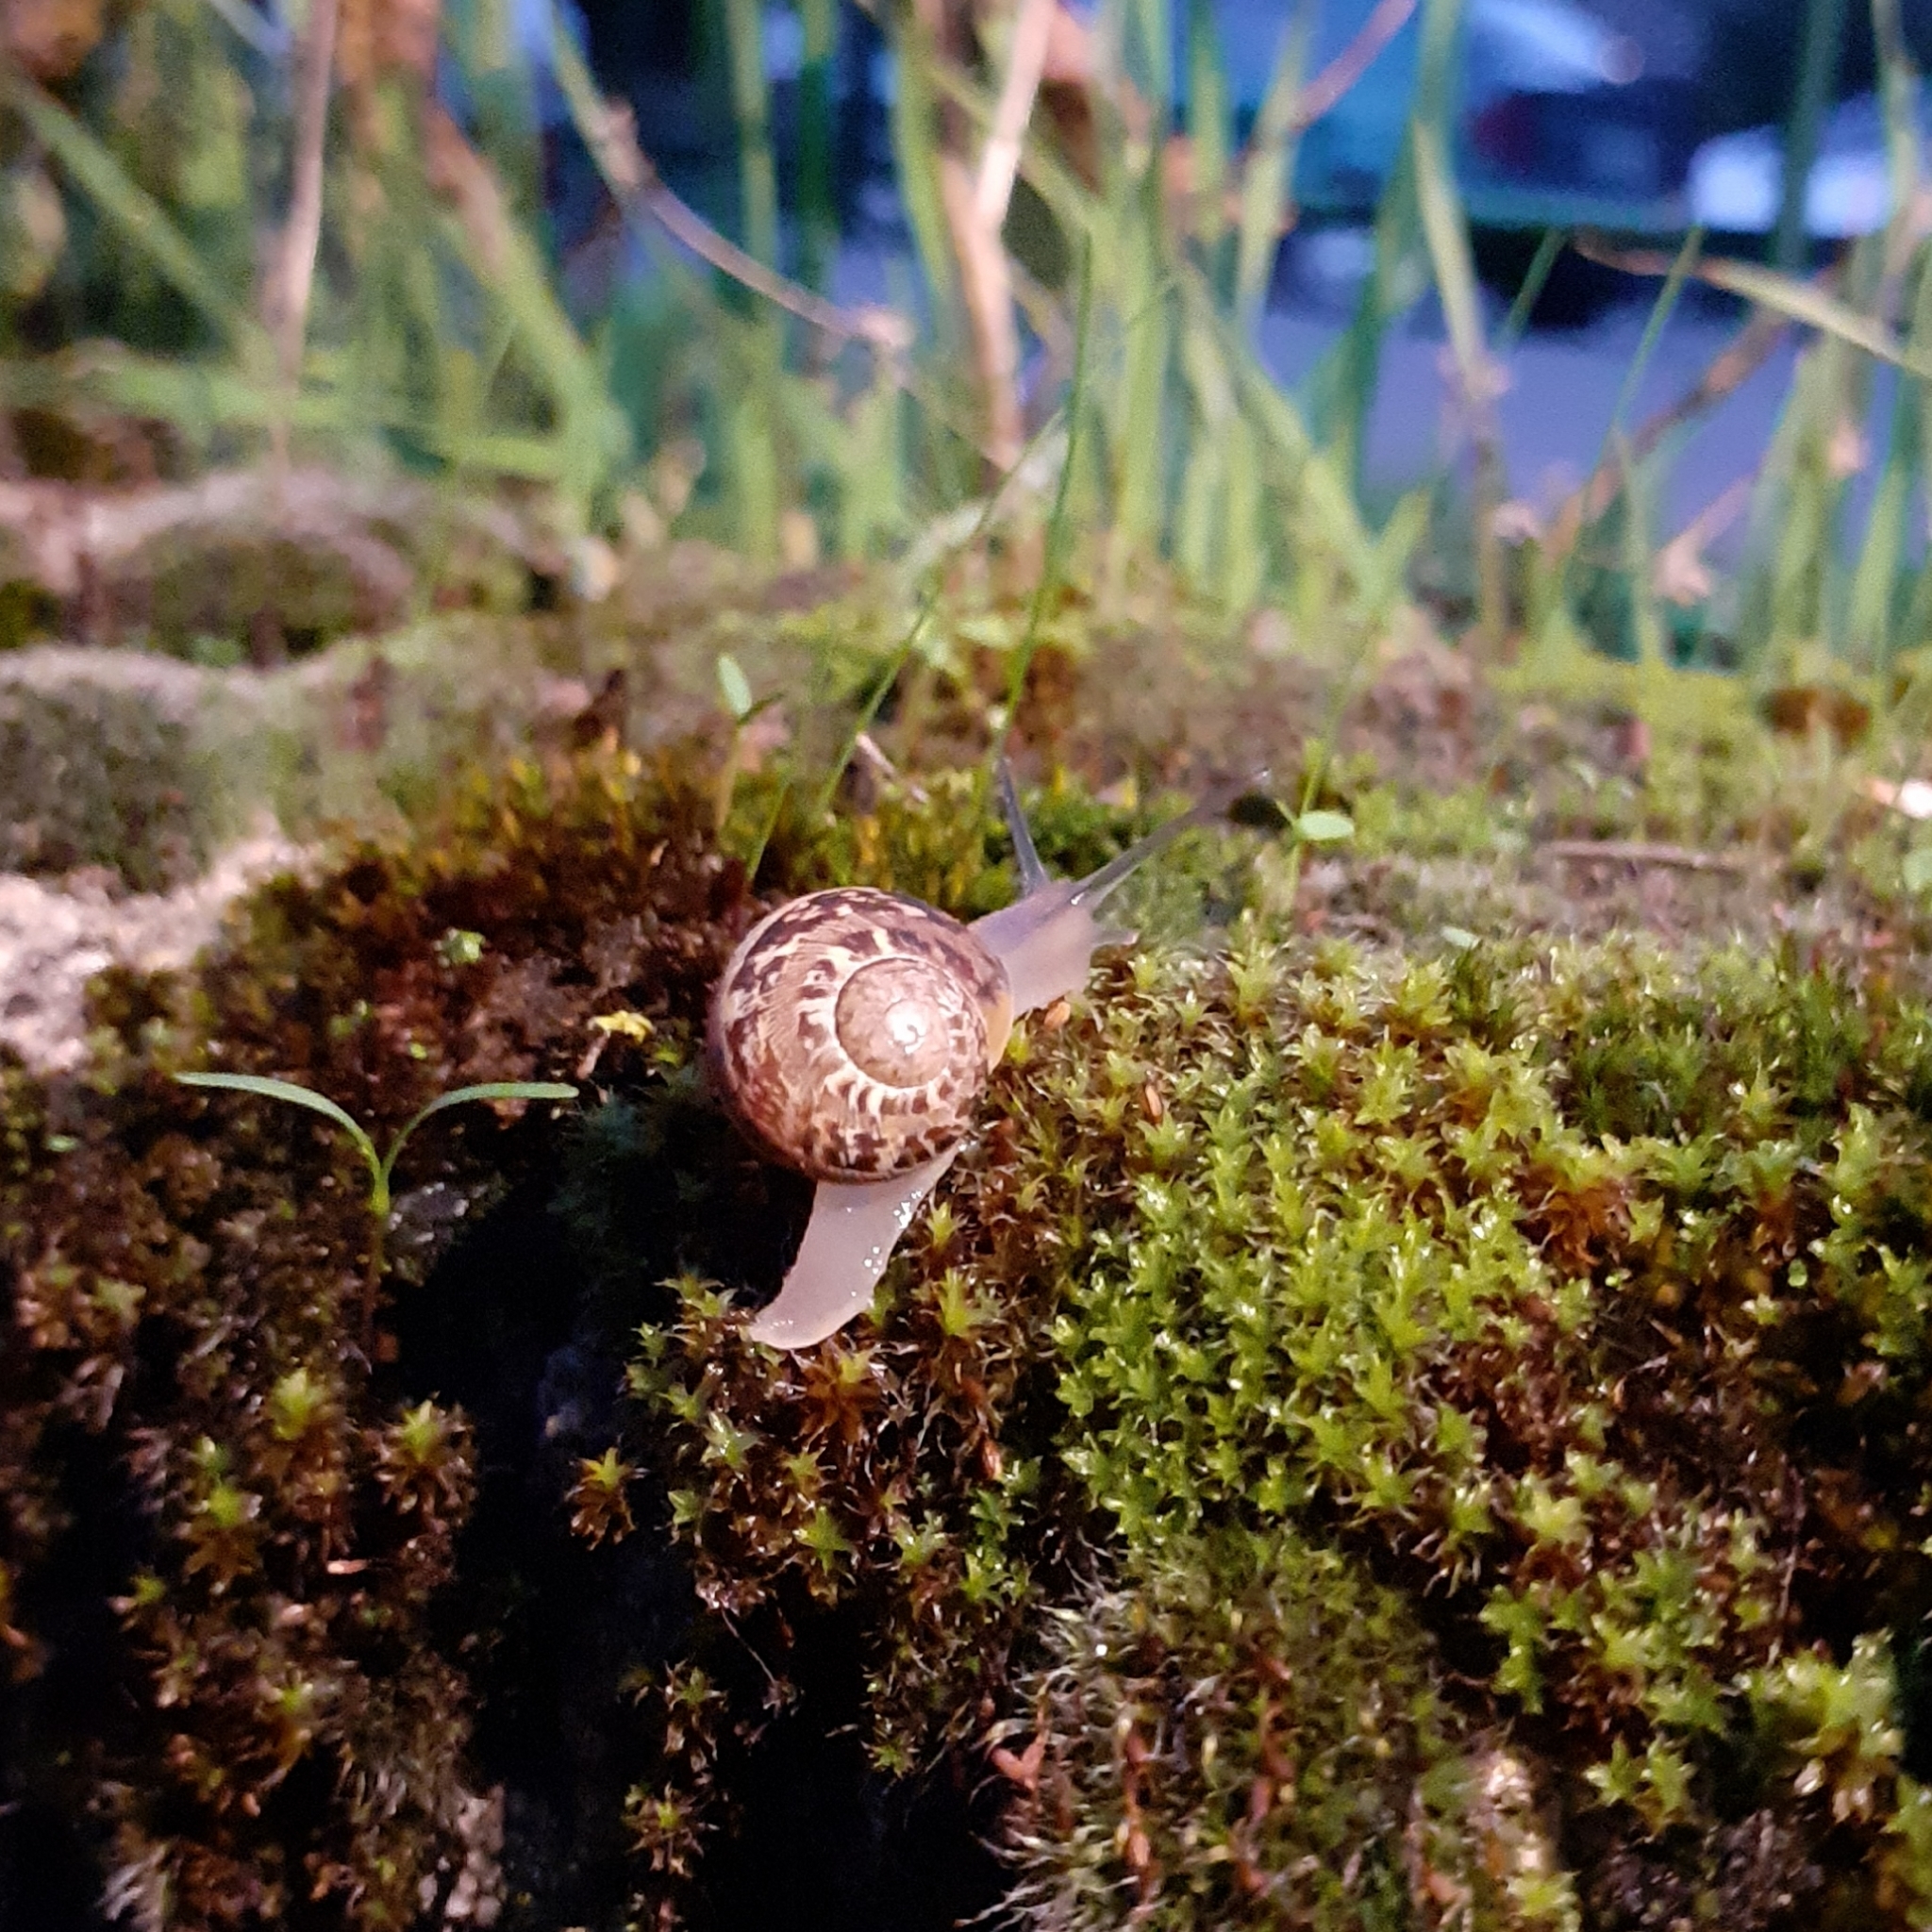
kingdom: Animalia
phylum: Mollusca
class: Gastropoda
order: Stylommatophora
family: Helicidae
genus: Cornu
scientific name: Cornu aspersum
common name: Brown garden snail
